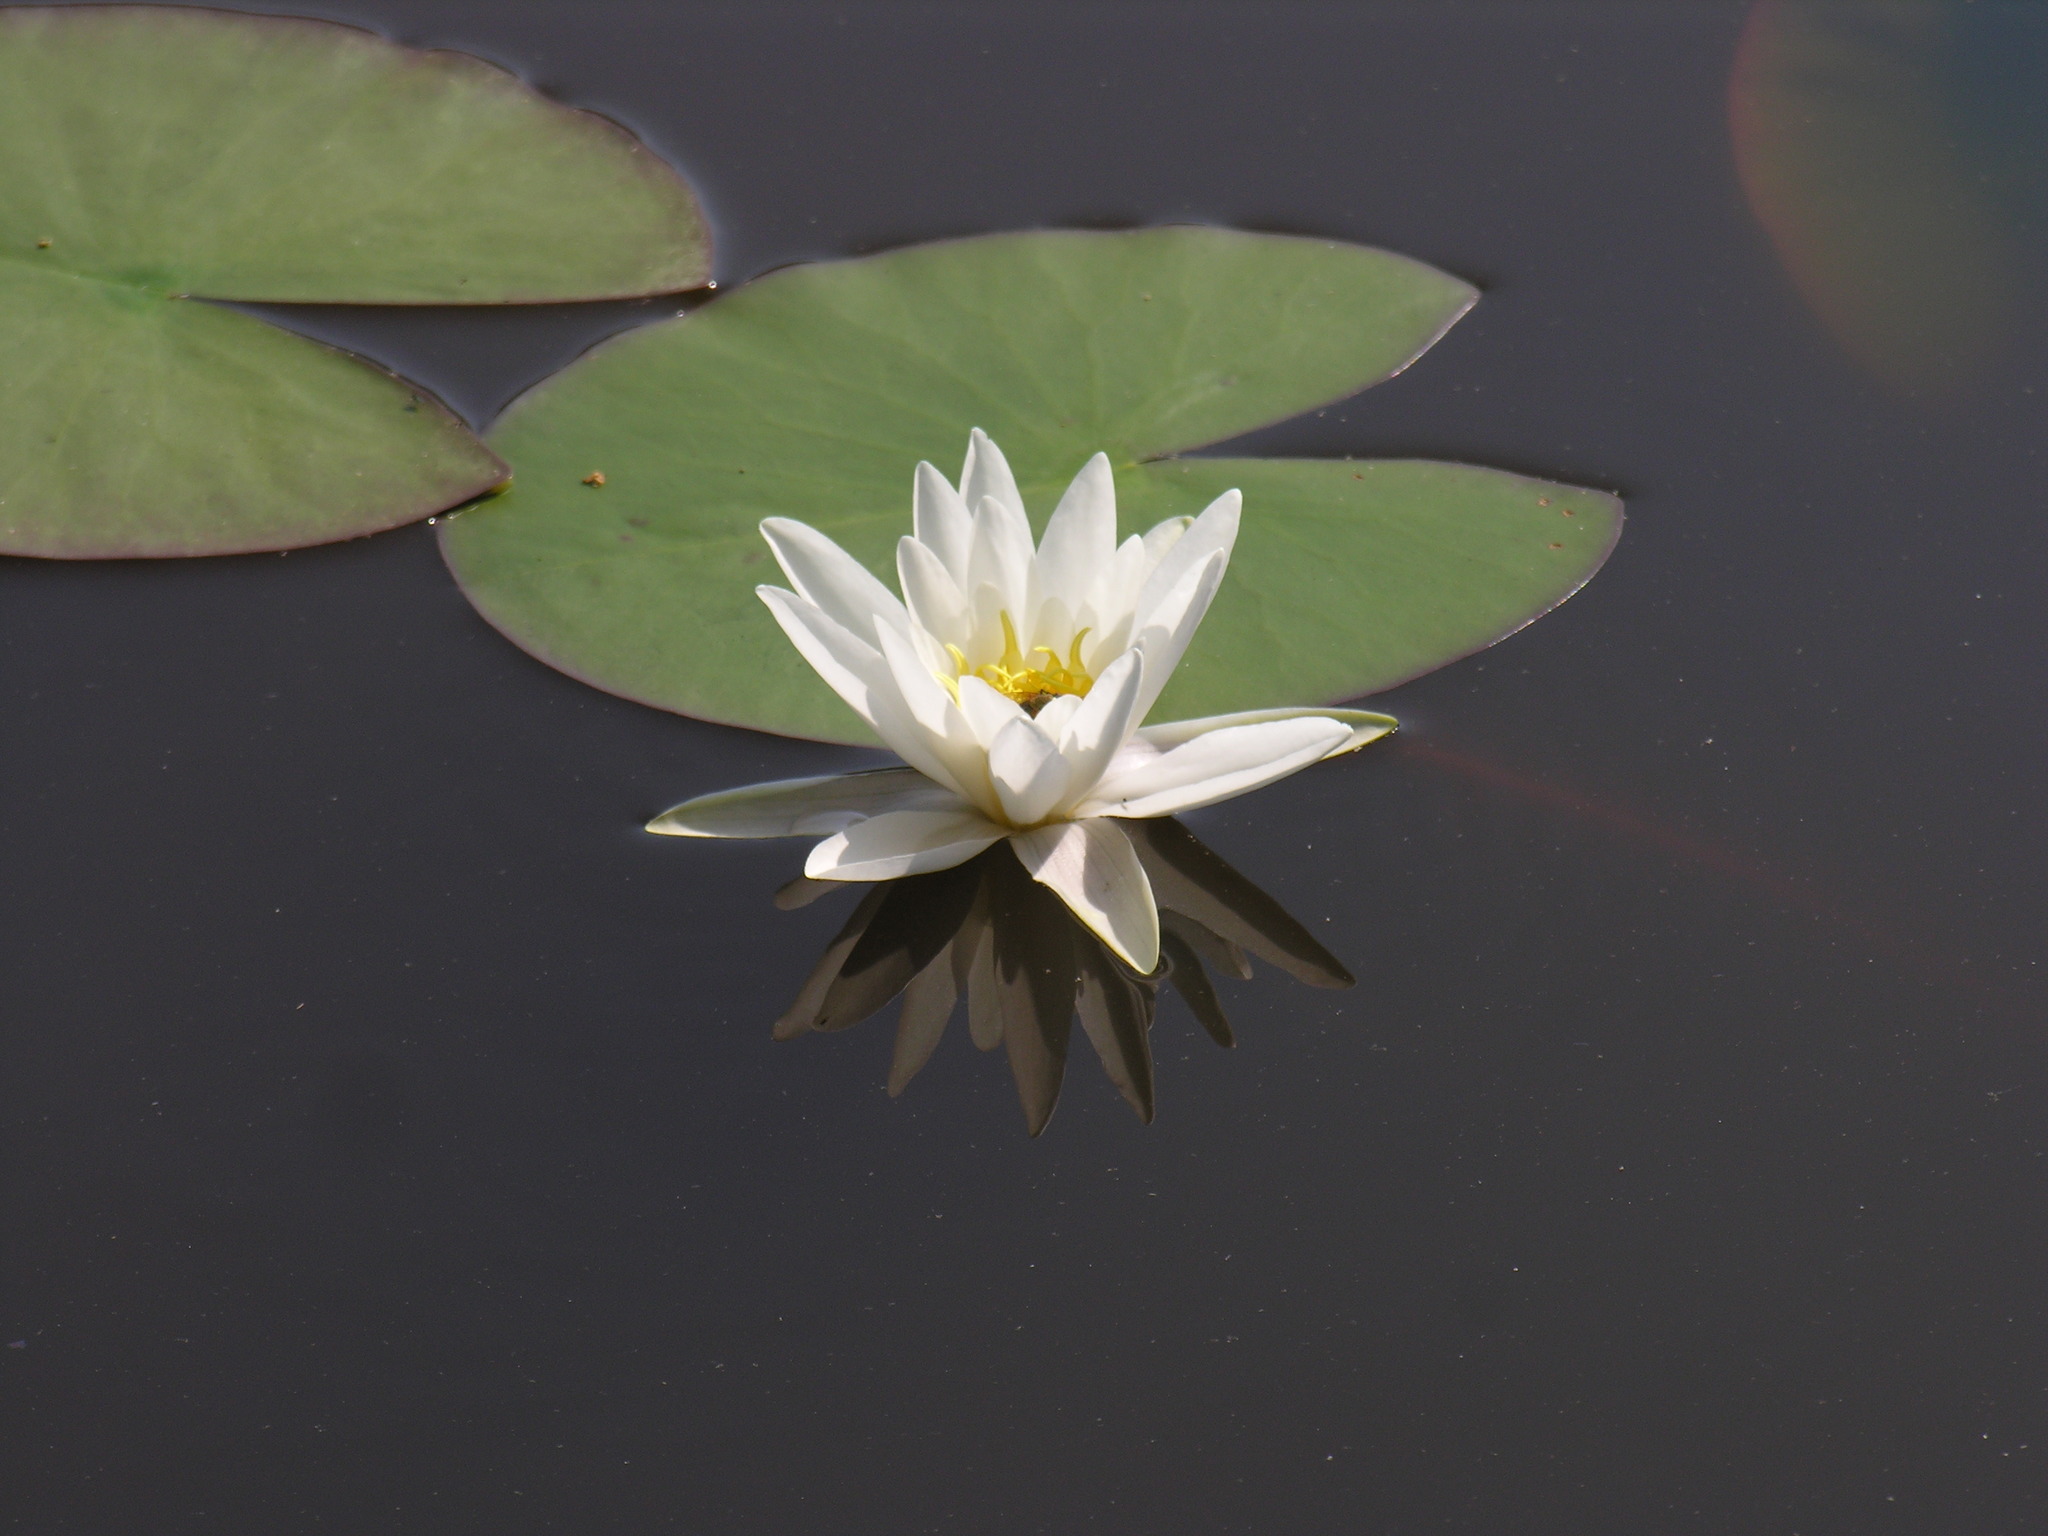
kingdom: Plantae
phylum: Tracheophyta
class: Magnoliopsida
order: Nymphaeales
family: Nymphaeaceae
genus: Nymphaea
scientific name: Nymphaea alba
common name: White water-lily
